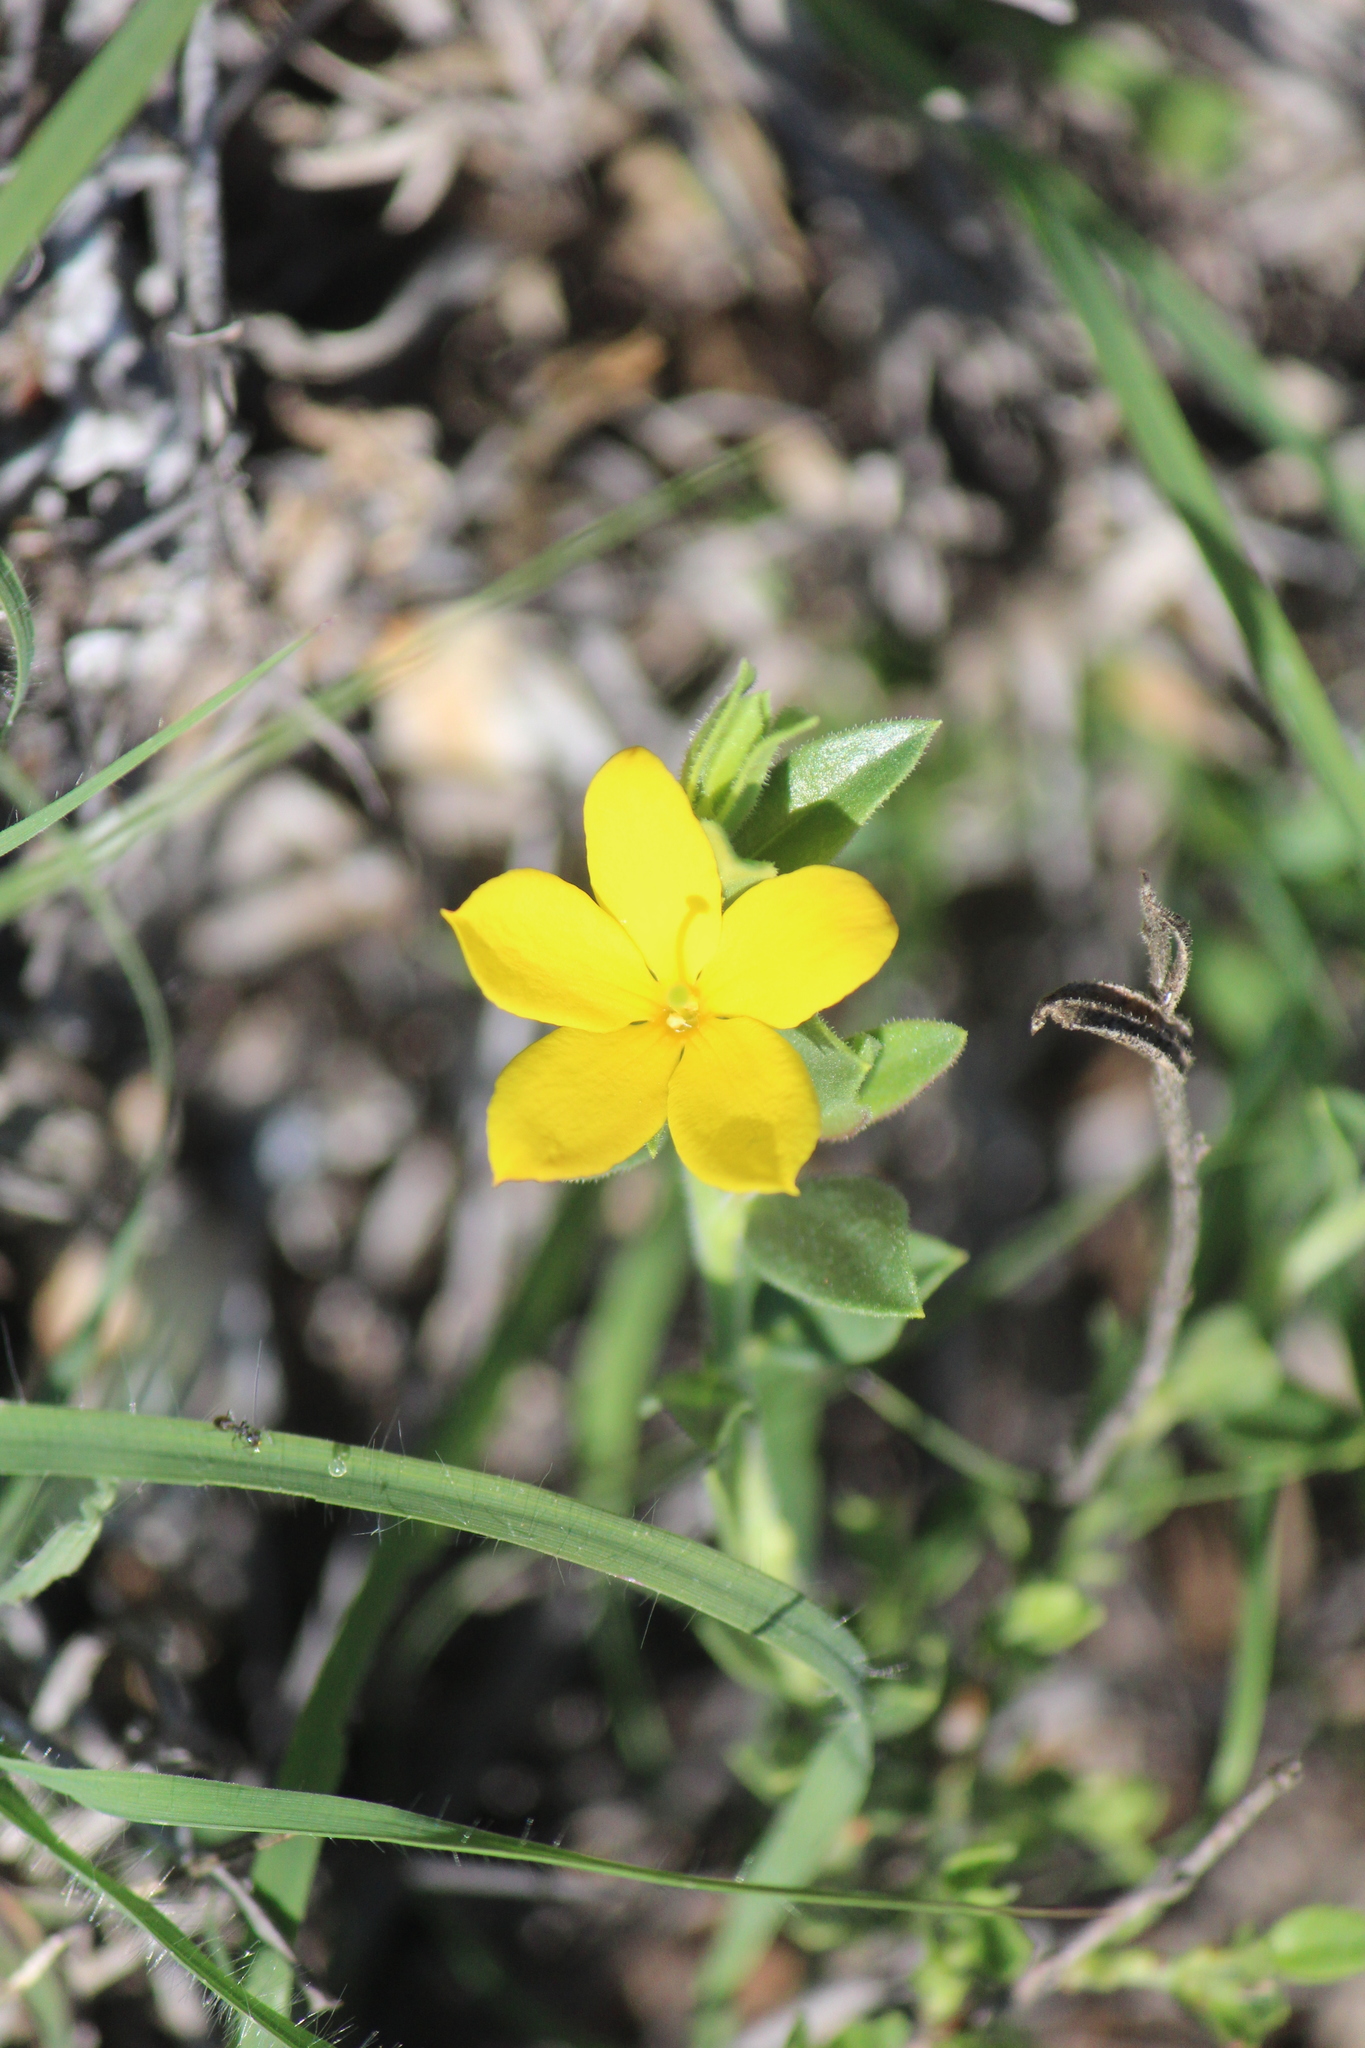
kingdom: Plantae
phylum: Tracheophyta
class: Magnoliopsida
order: Lamiales
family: Oleaceae
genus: Menodora
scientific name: Menodora scabra
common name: Rough menodora
